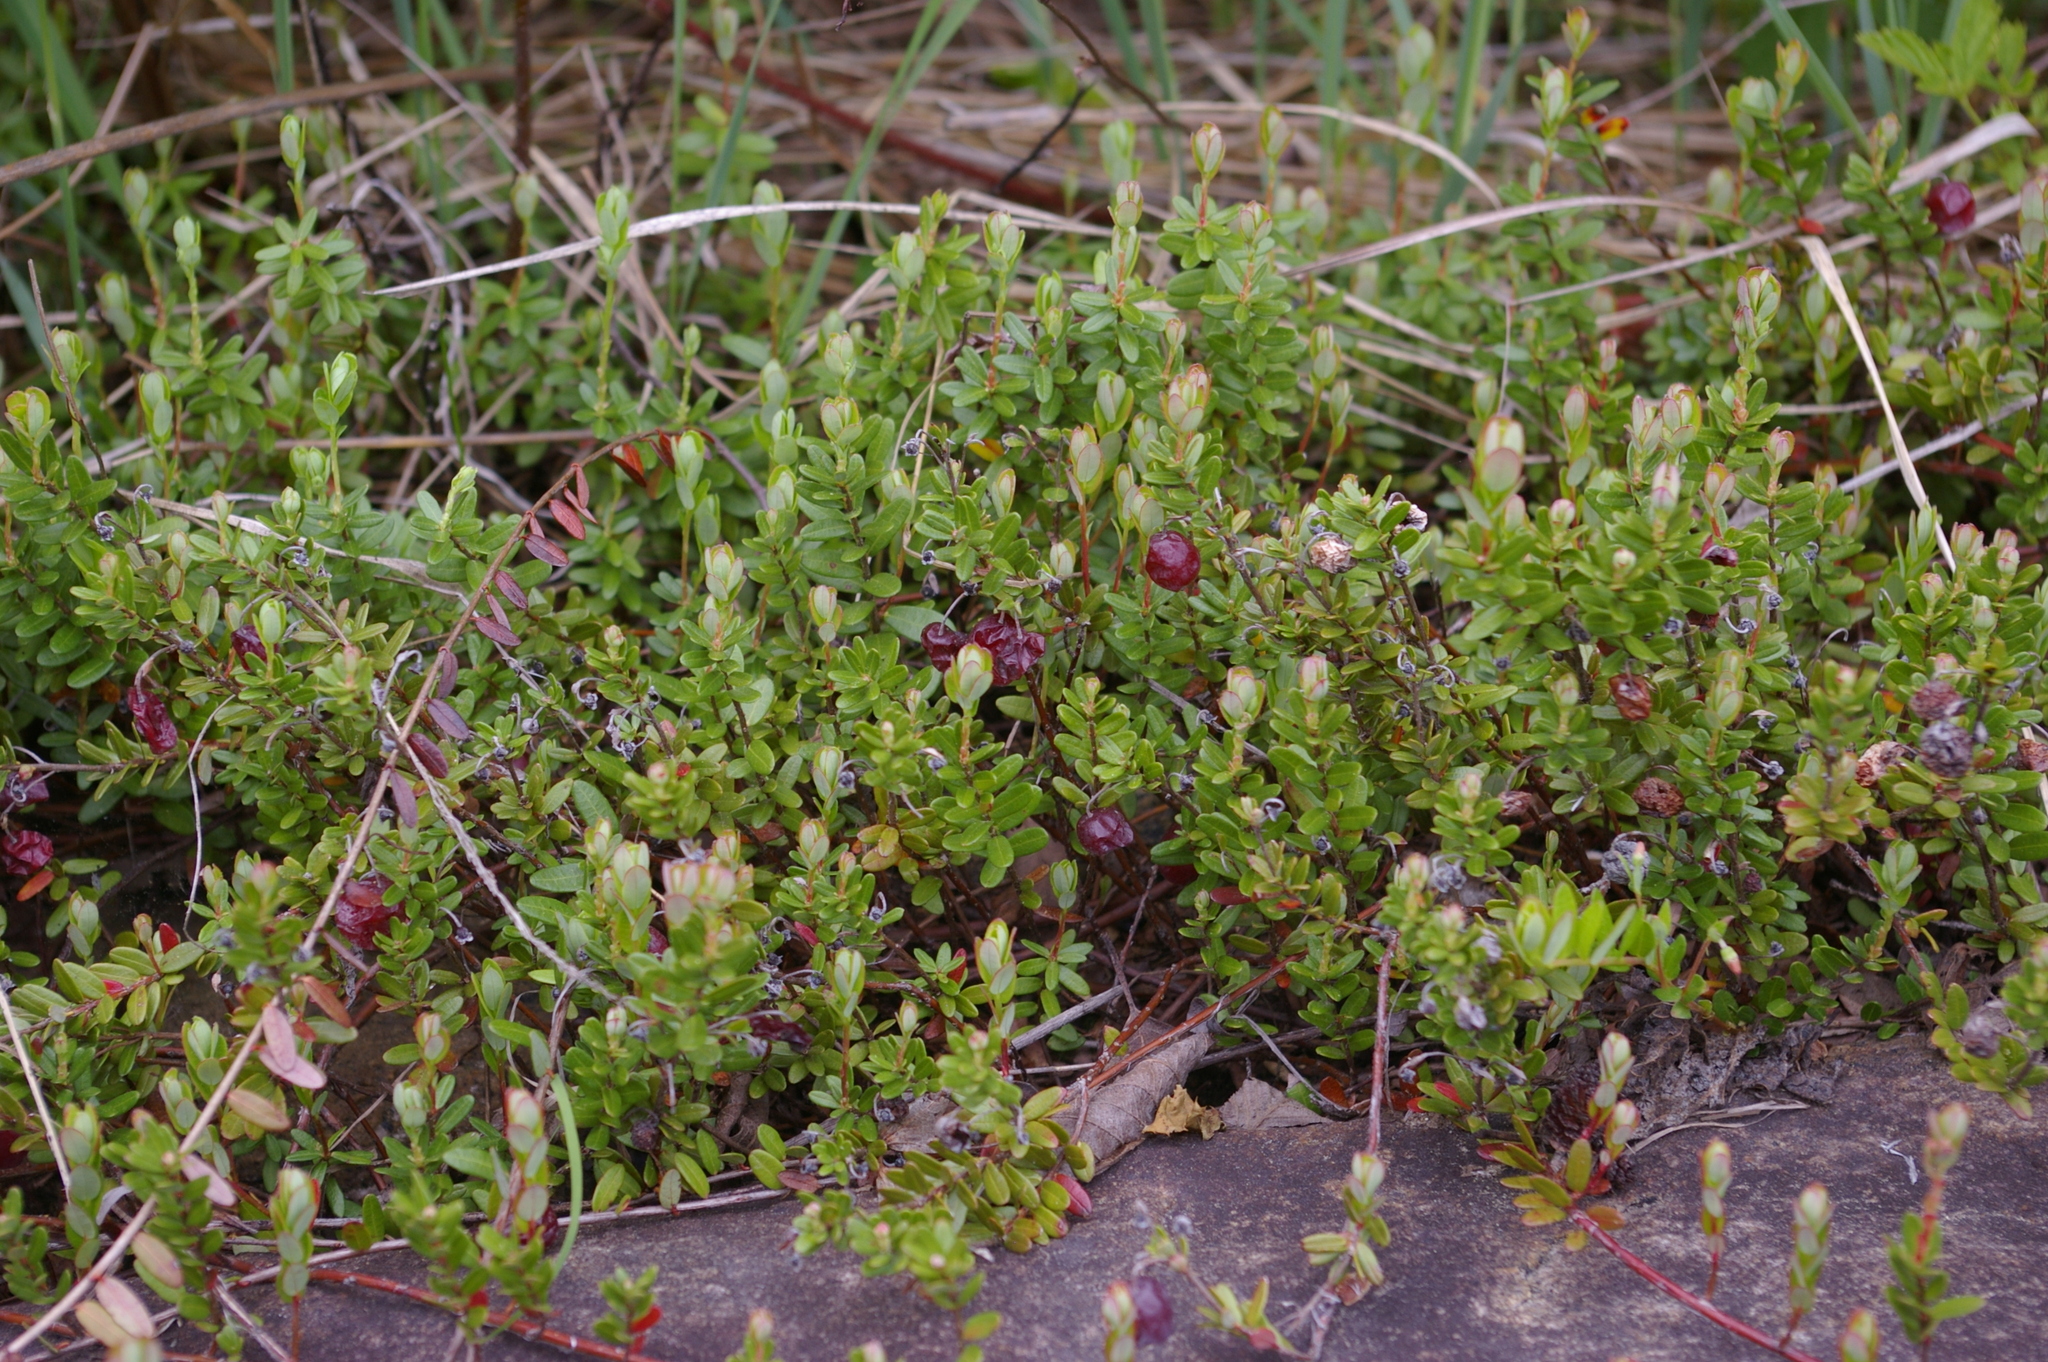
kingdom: Plantae
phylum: Tracheophyta
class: Magnoliopsida
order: Ericales
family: Ericaceae
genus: Vaccinium
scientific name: Vaccinium macrocarpon
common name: American cranberry
